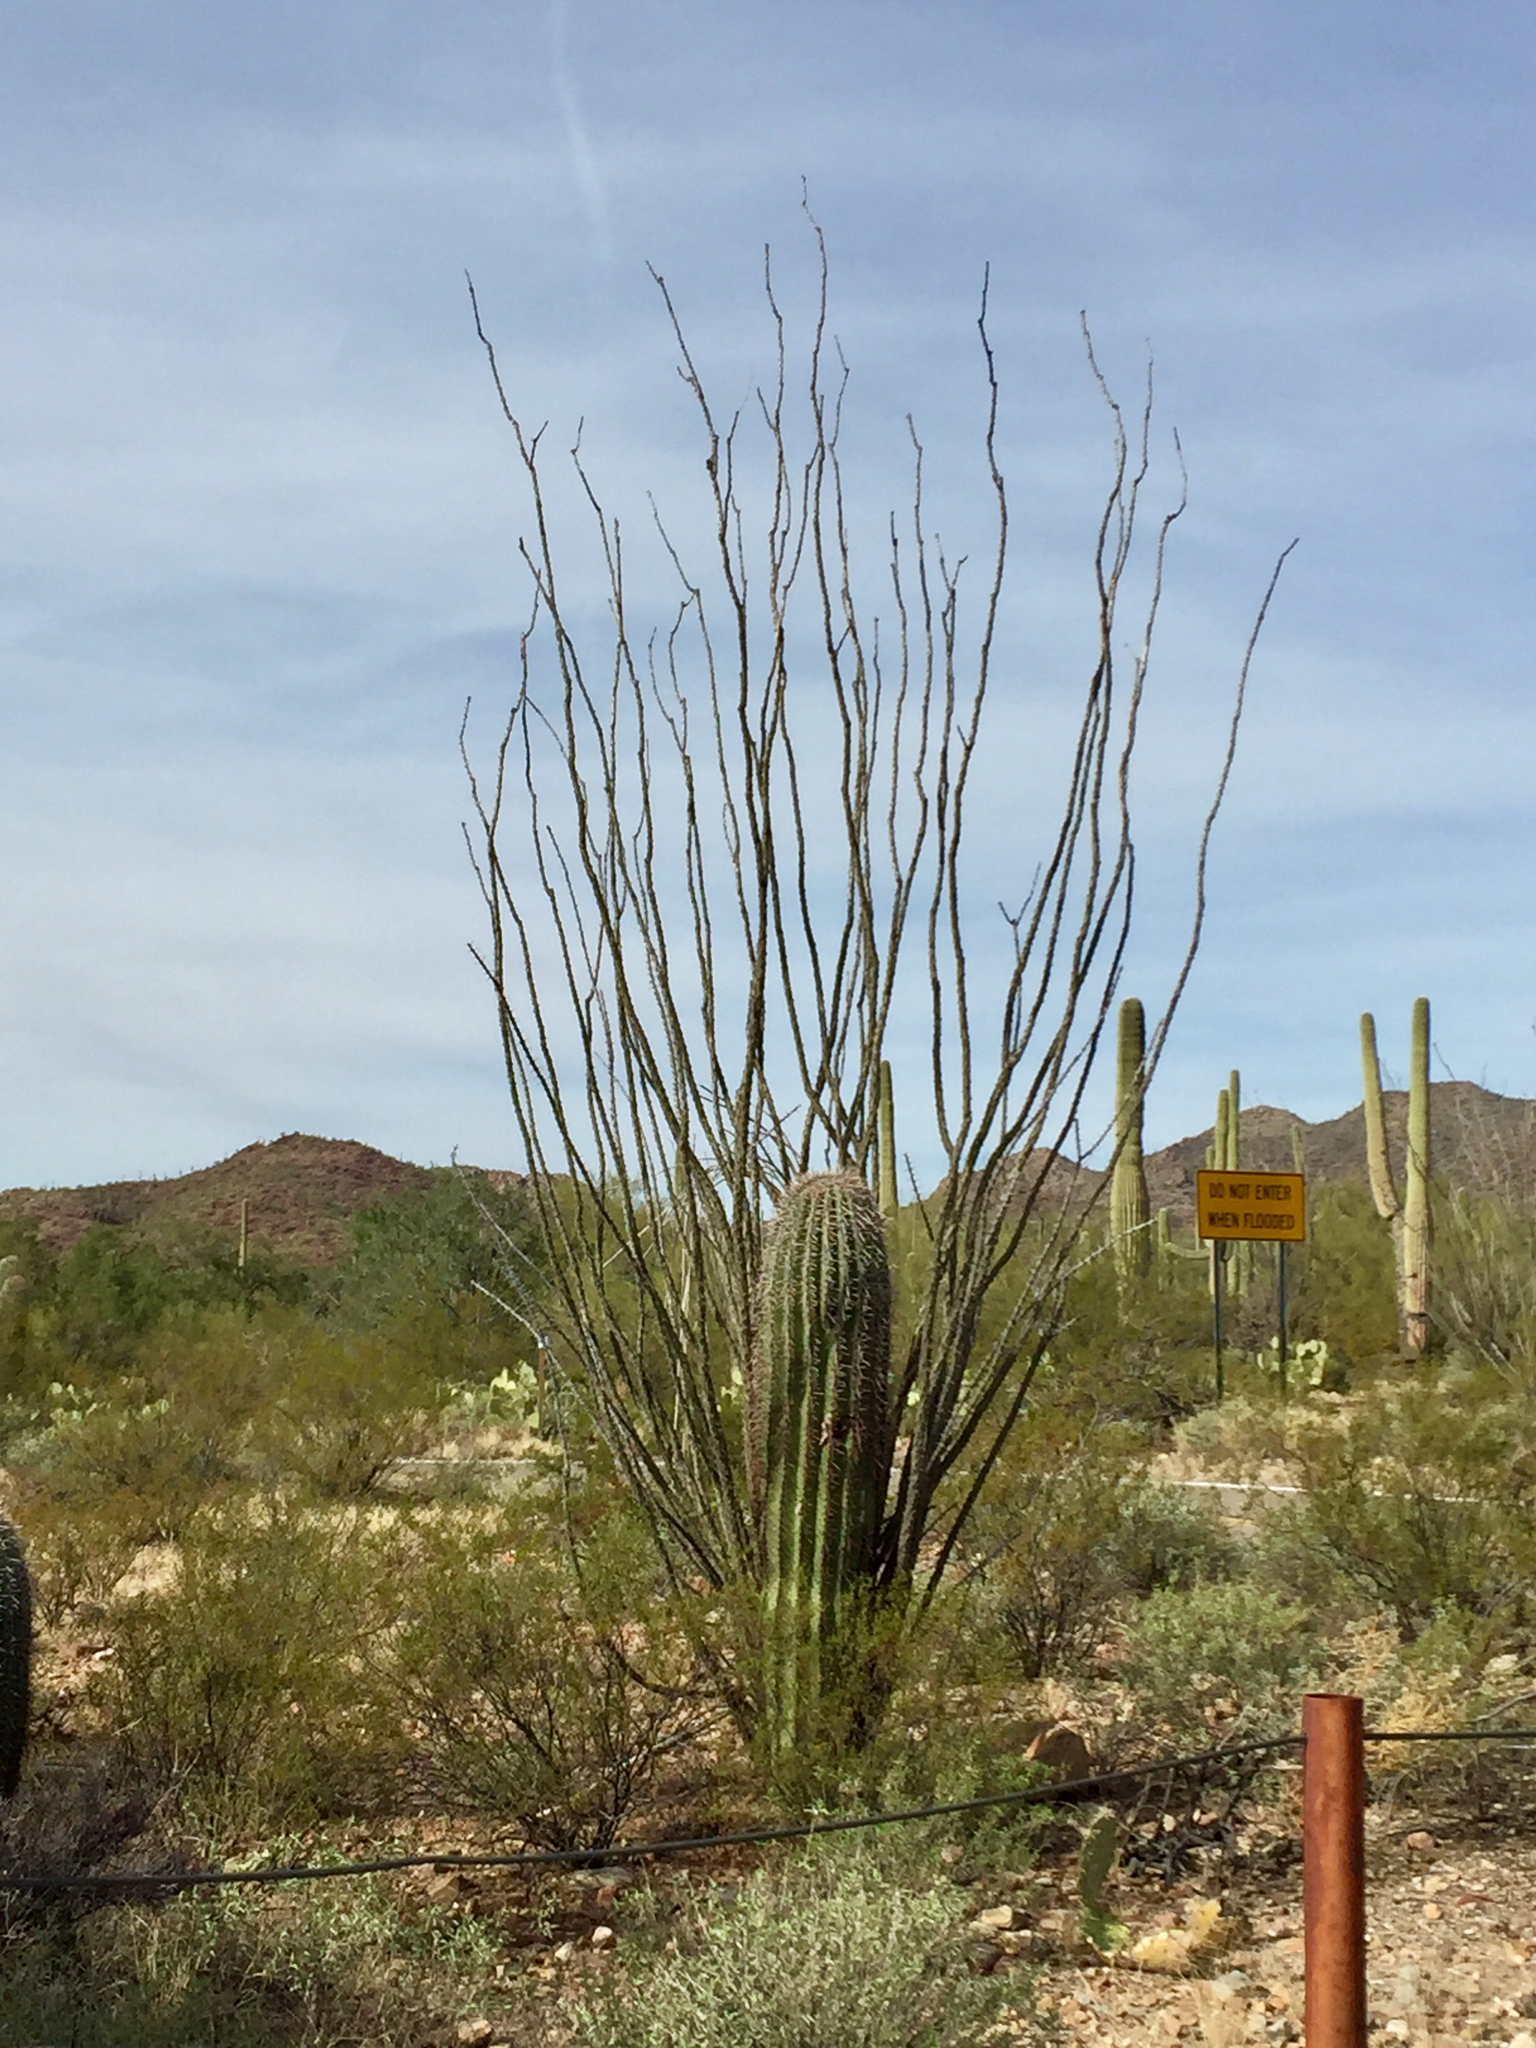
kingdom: Plantae
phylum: Tracheophyta
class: Magnoliopsida
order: Ericales
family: Fouquieriaceae
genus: Fouquieria
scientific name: Fouquieria splendens
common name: Vine-cactus
